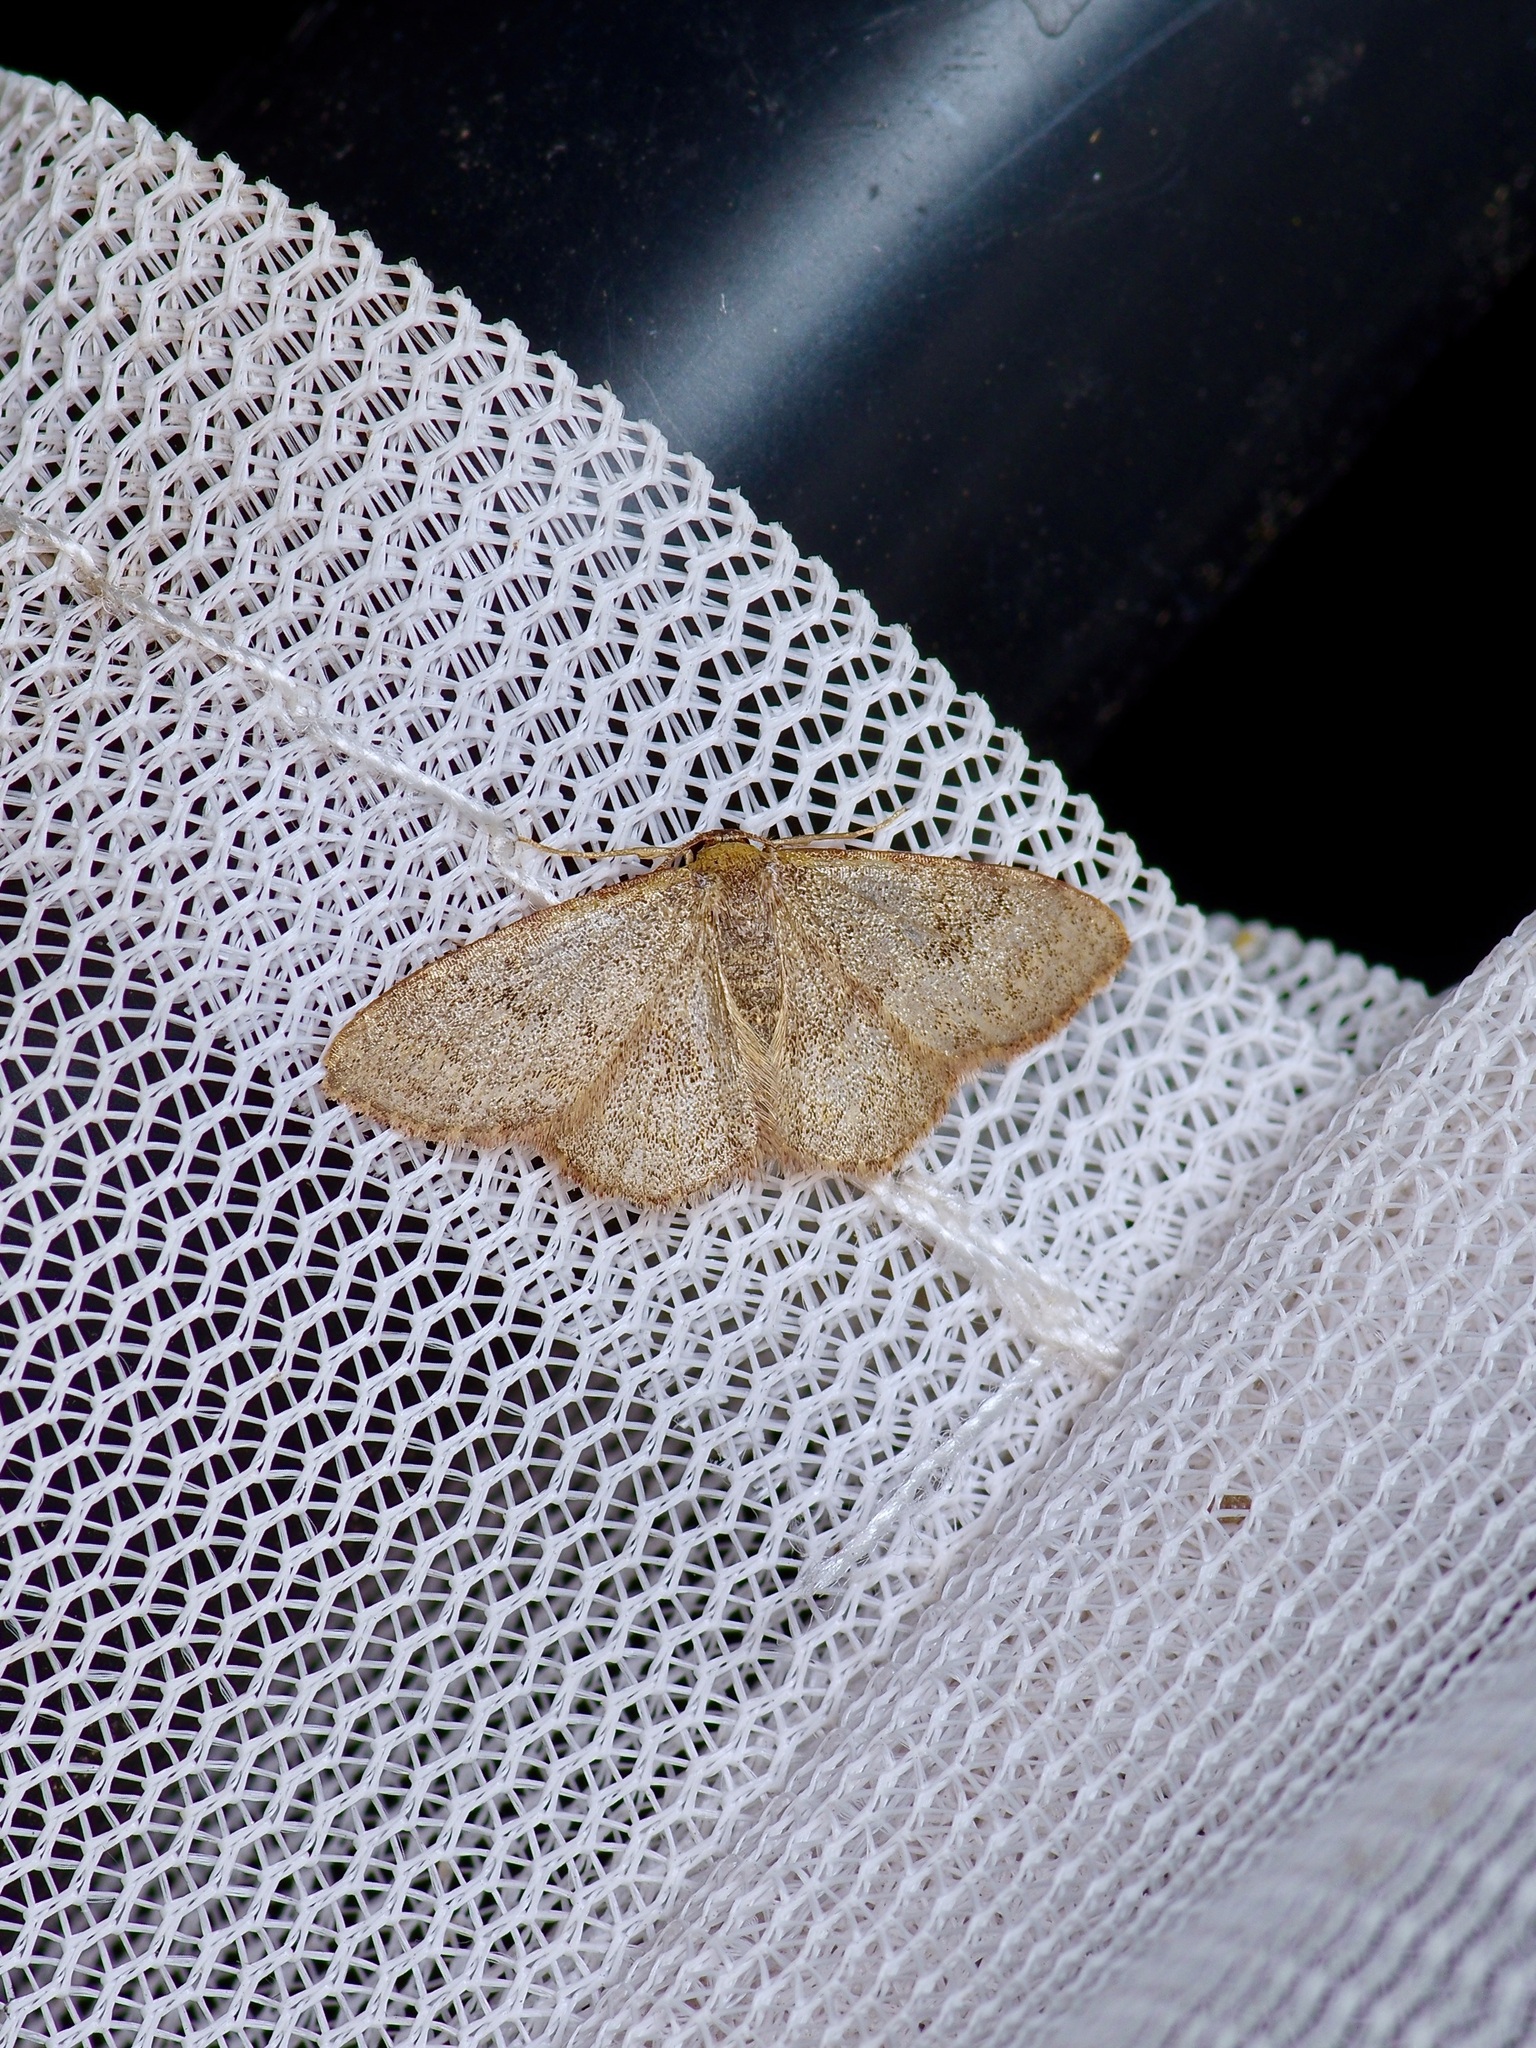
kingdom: Animalia
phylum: Arthropoda
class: Insecta
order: Lepidoptera
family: Geometridae
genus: Leptostales
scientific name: Leptostales pannaria
